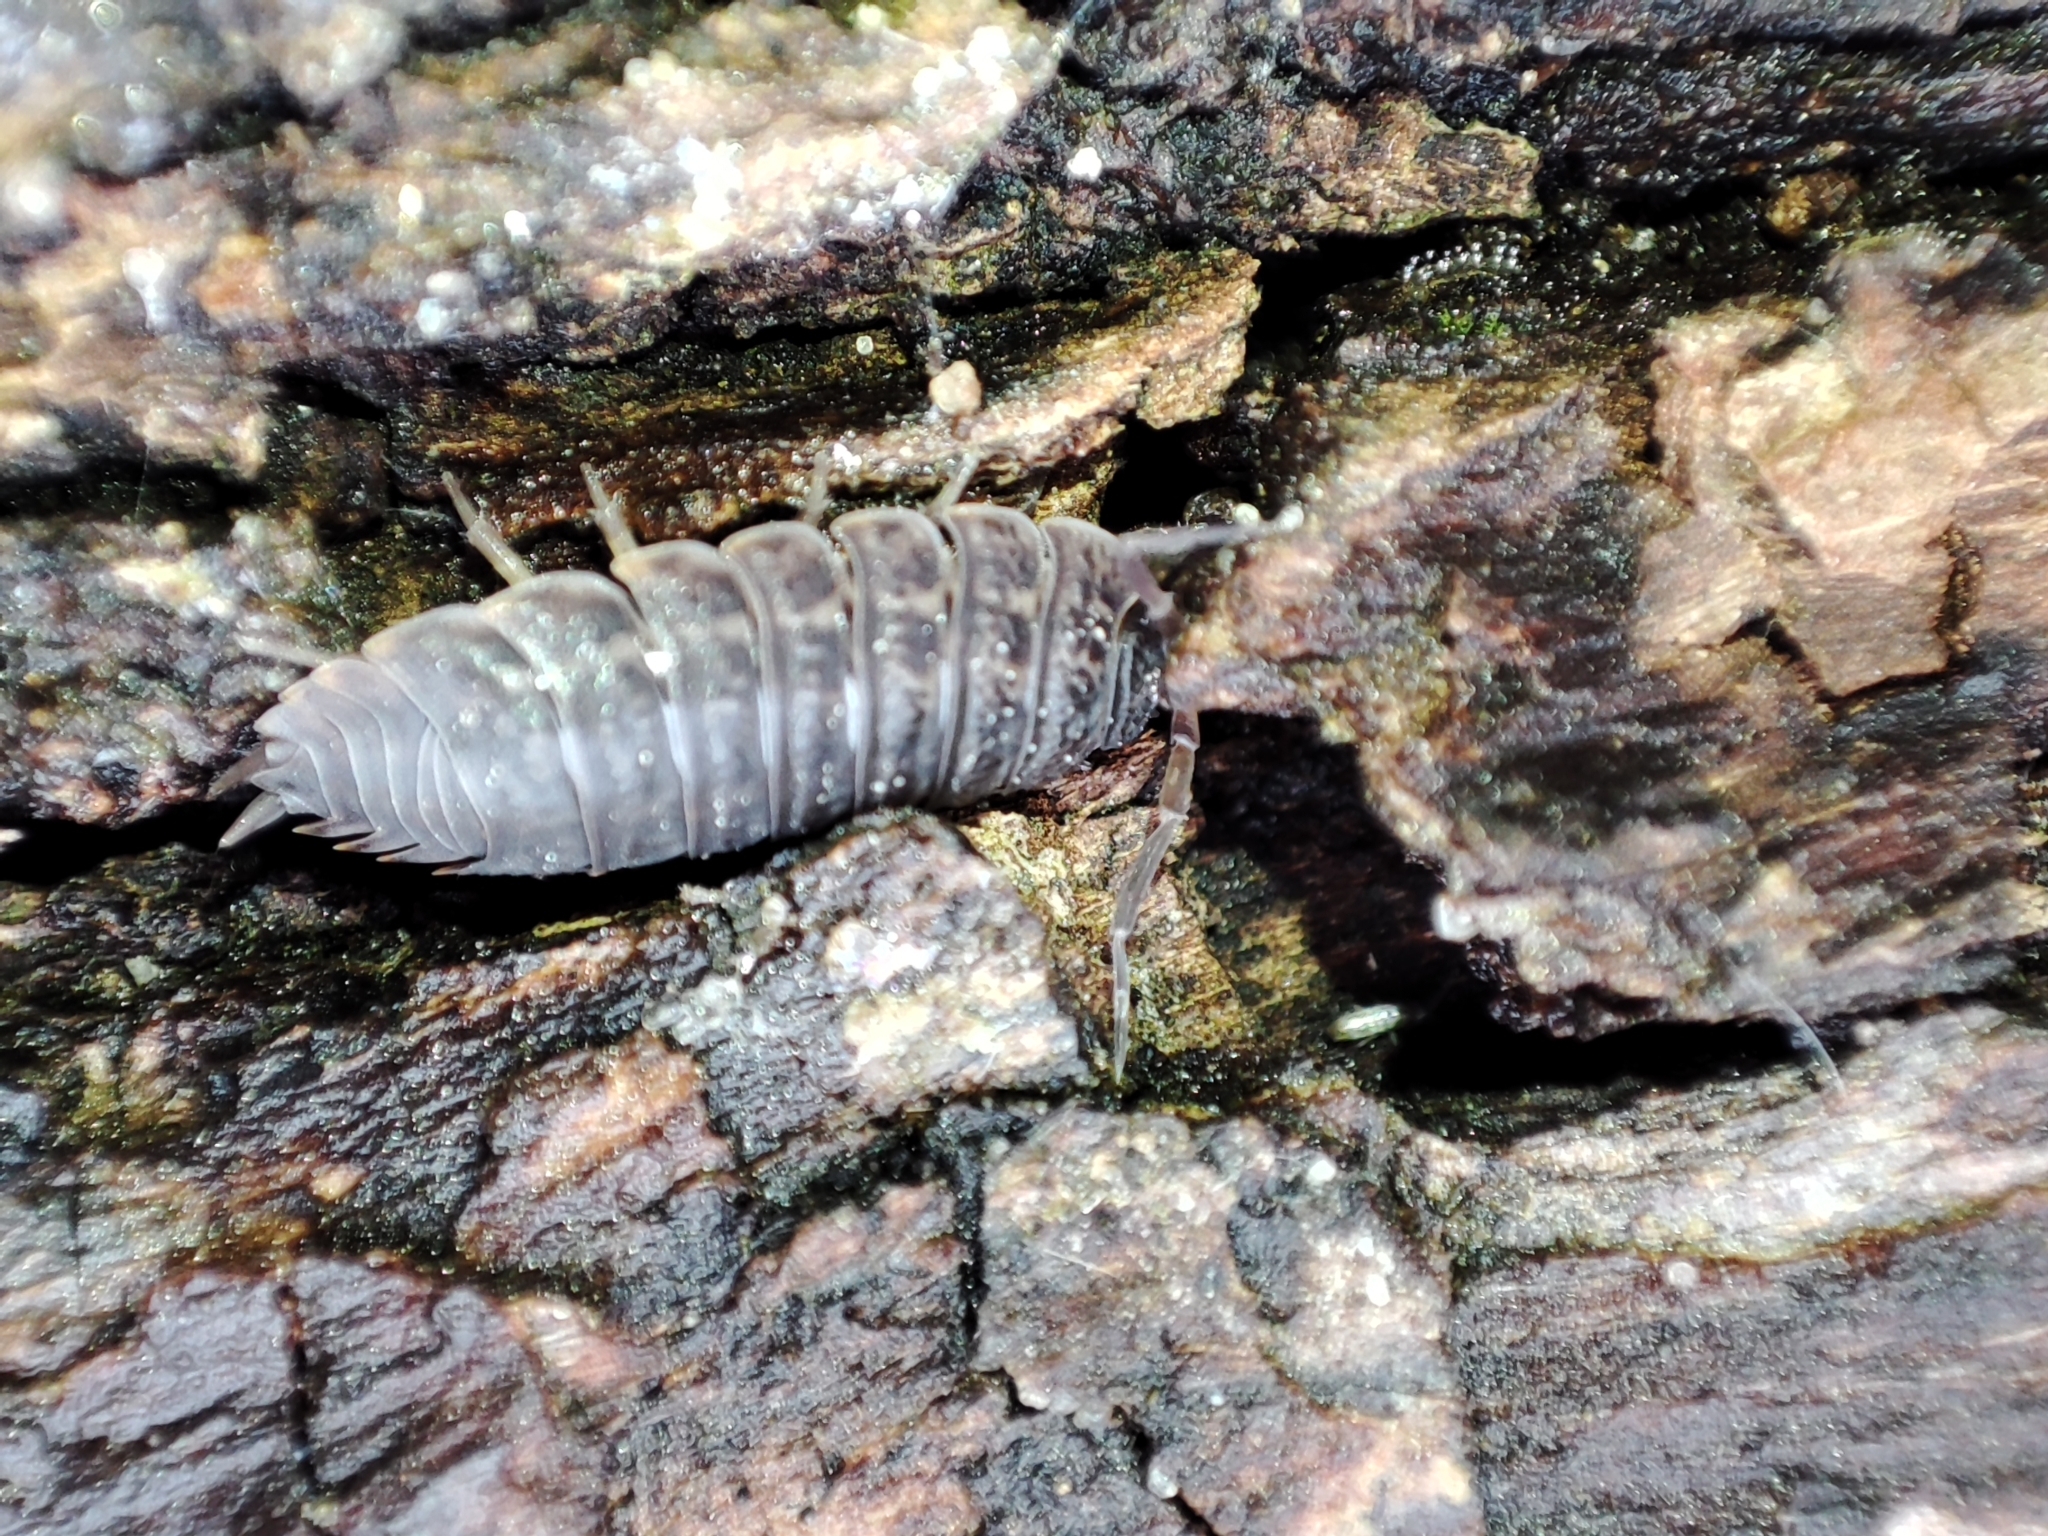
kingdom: Animalia
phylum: Arthropoda
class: Malacostraca
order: Isopoda
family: Trachelipodidae
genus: Trachelipus
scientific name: Trachelipus rathkii
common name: Isopod
